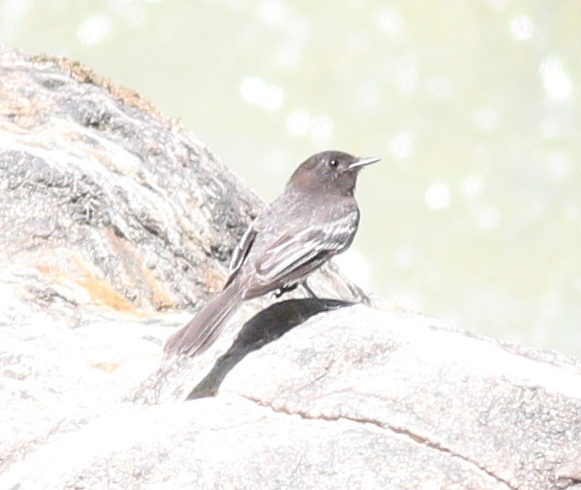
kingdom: Animalia
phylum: Chordata
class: Aves
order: Passeriformes
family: Tyrannidae
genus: Sayornis
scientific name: Sayornis nigricans
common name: Black phoebe
